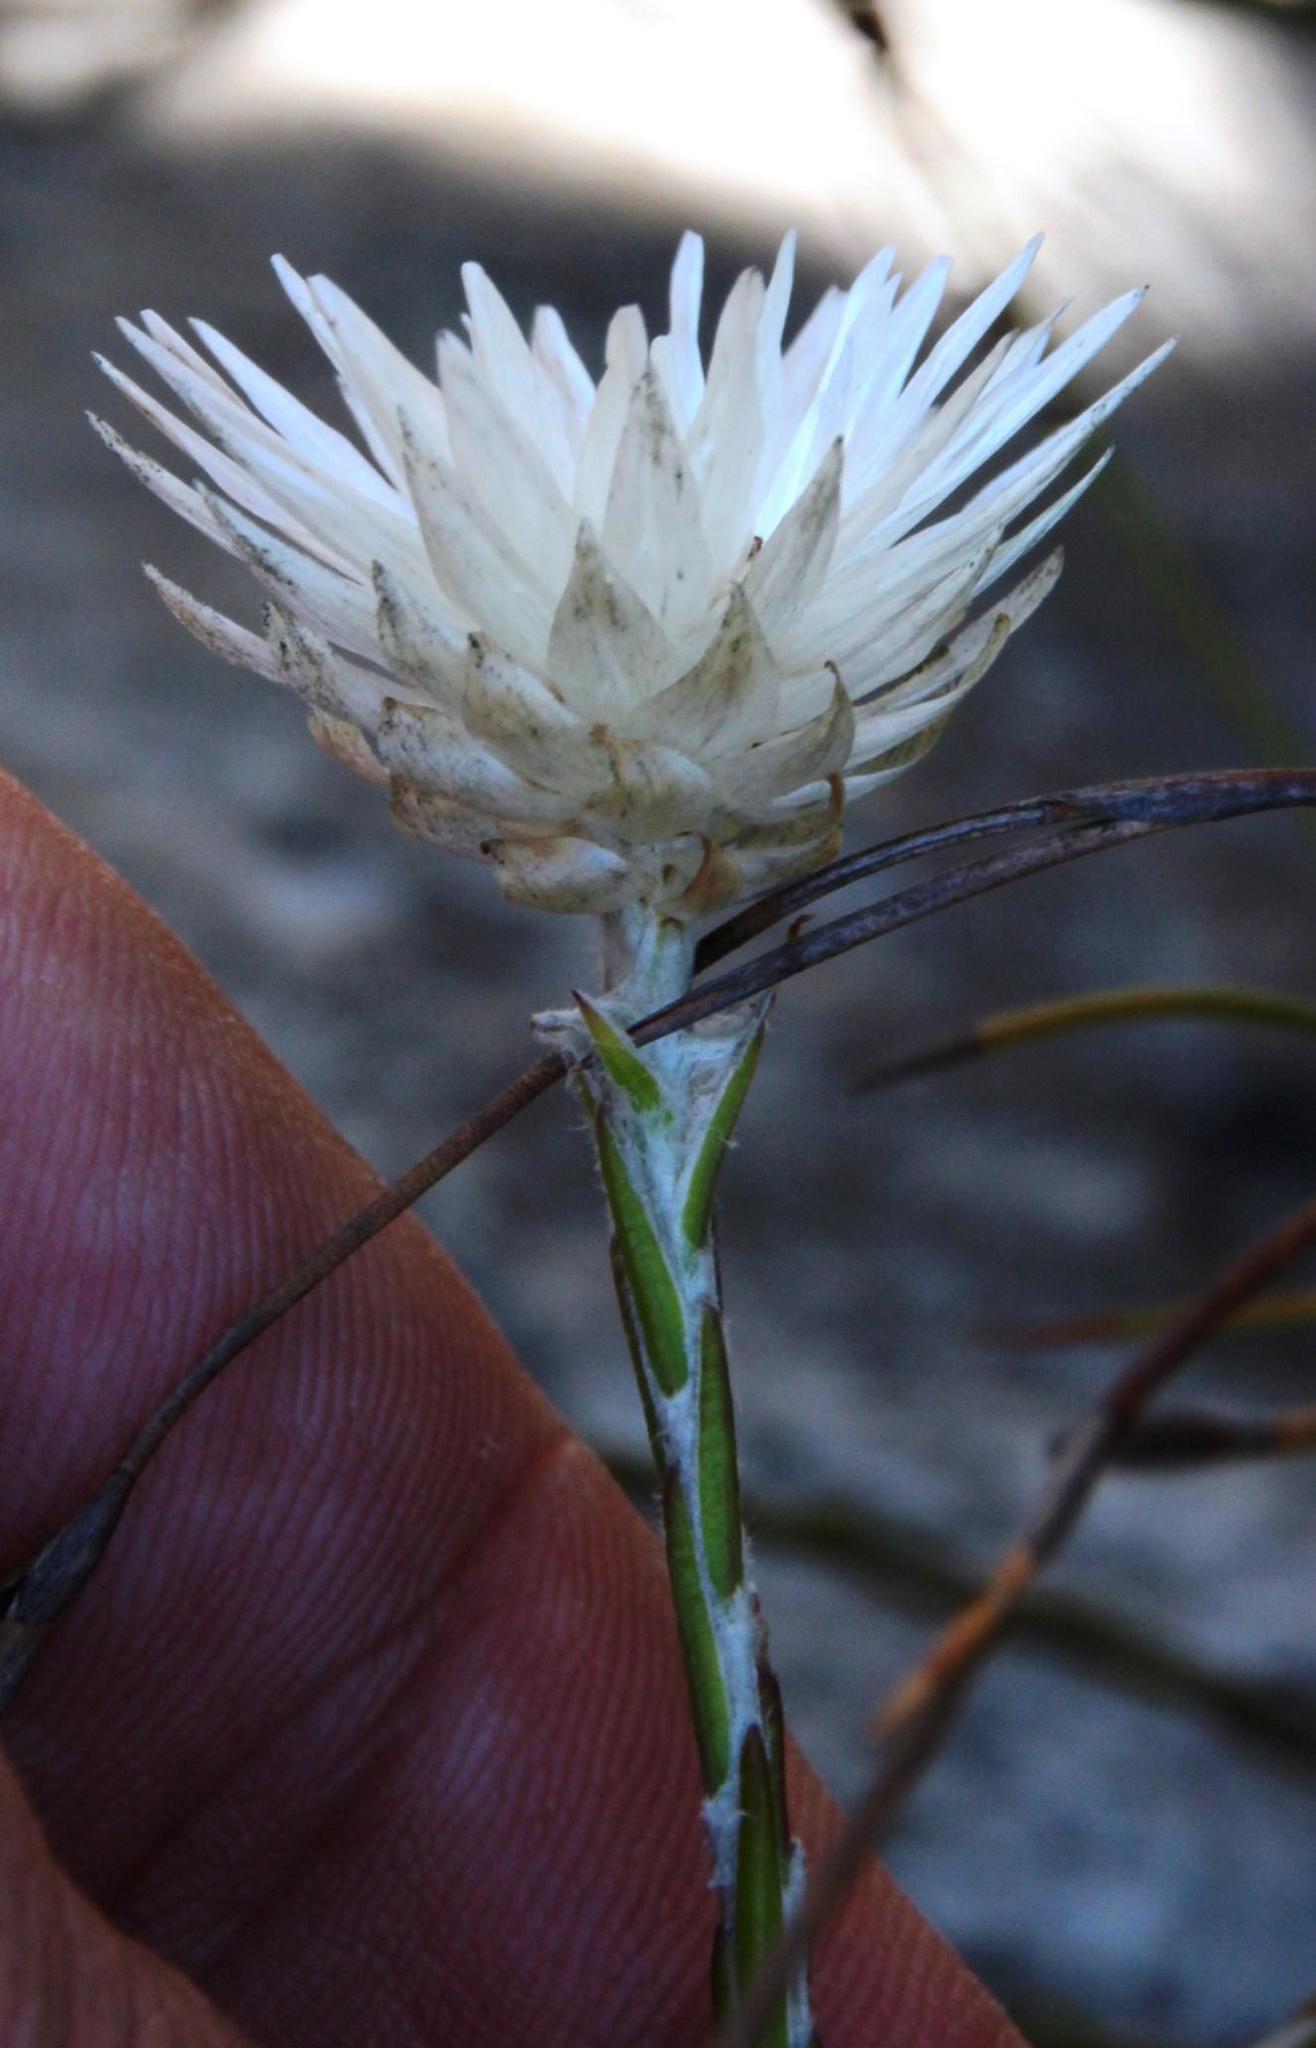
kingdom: Plantae
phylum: Tracheophyta
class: Magnoliopsida
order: Asterales
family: Asteraceae
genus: Edmondia
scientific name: Edmondia sesamoides
